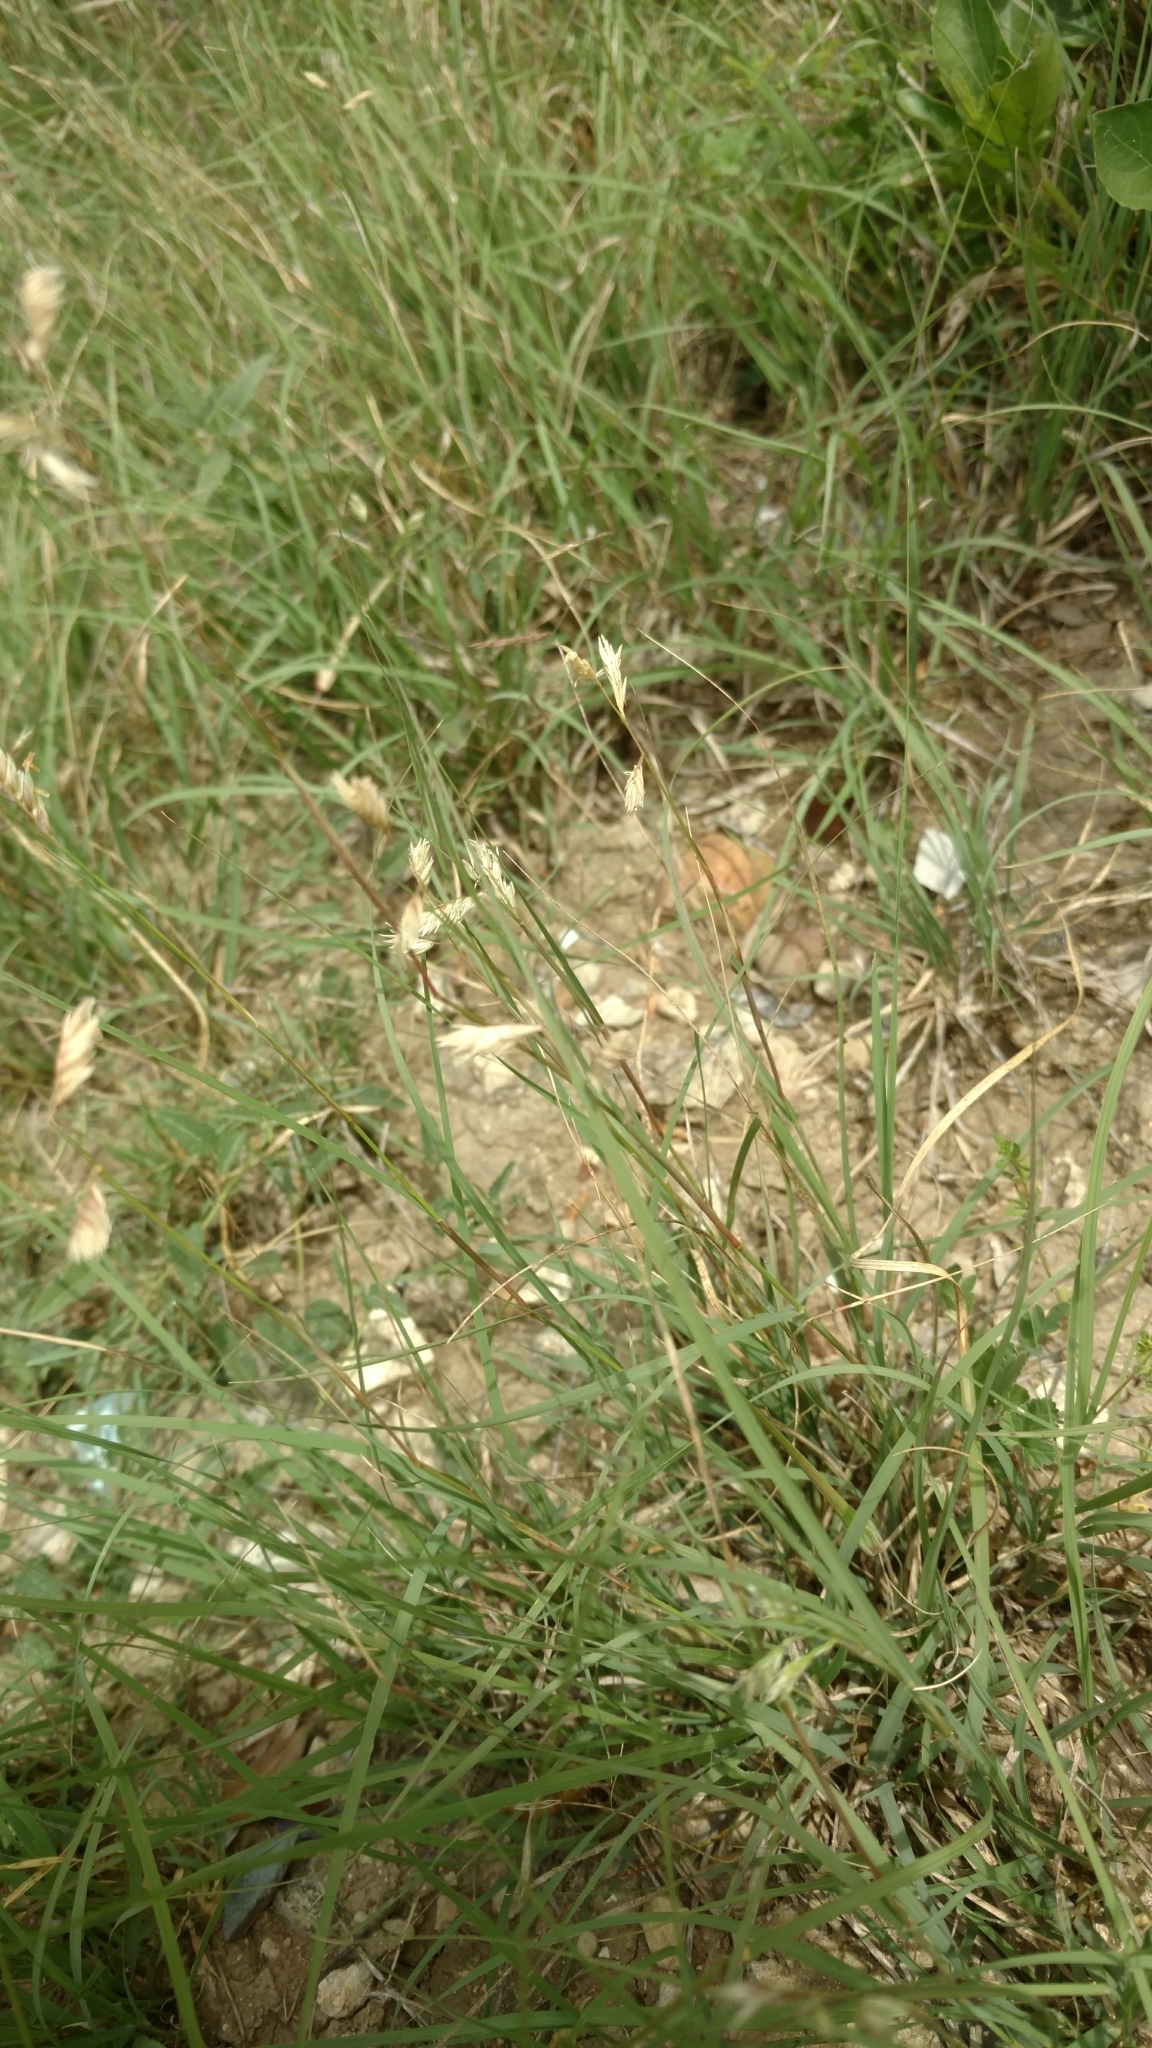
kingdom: Plantae
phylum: Tracheophyta
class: Liliopsida
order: Poales
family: Poaceae
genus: Bouteloua
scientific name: Bouteloua dactyloides
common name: Buffalo grass
